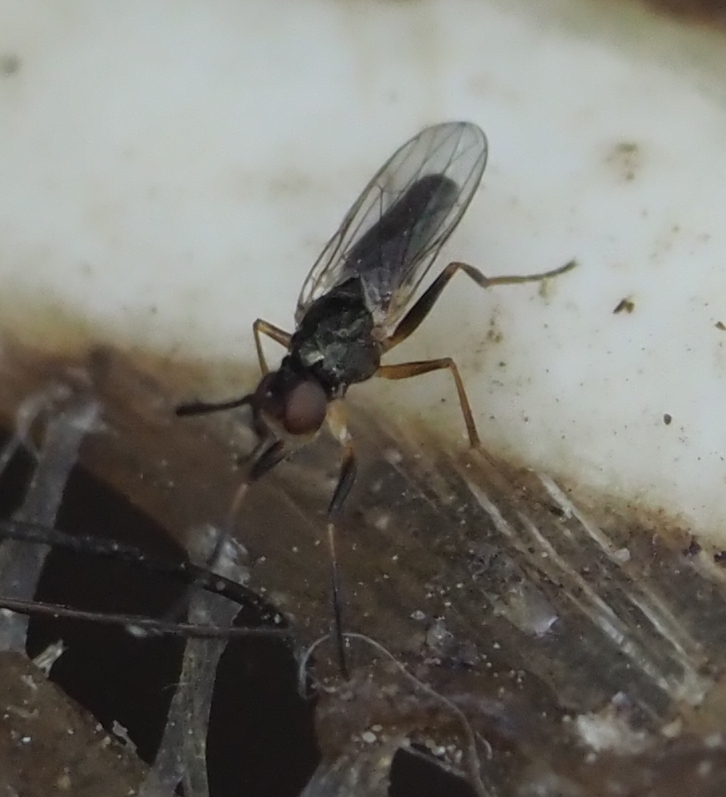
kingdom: Animalia
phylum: Arthropoda
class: Insecta
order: Diptera
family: Piophilidae
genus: Prochyliza
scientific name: Prochyliza xanthostoma
